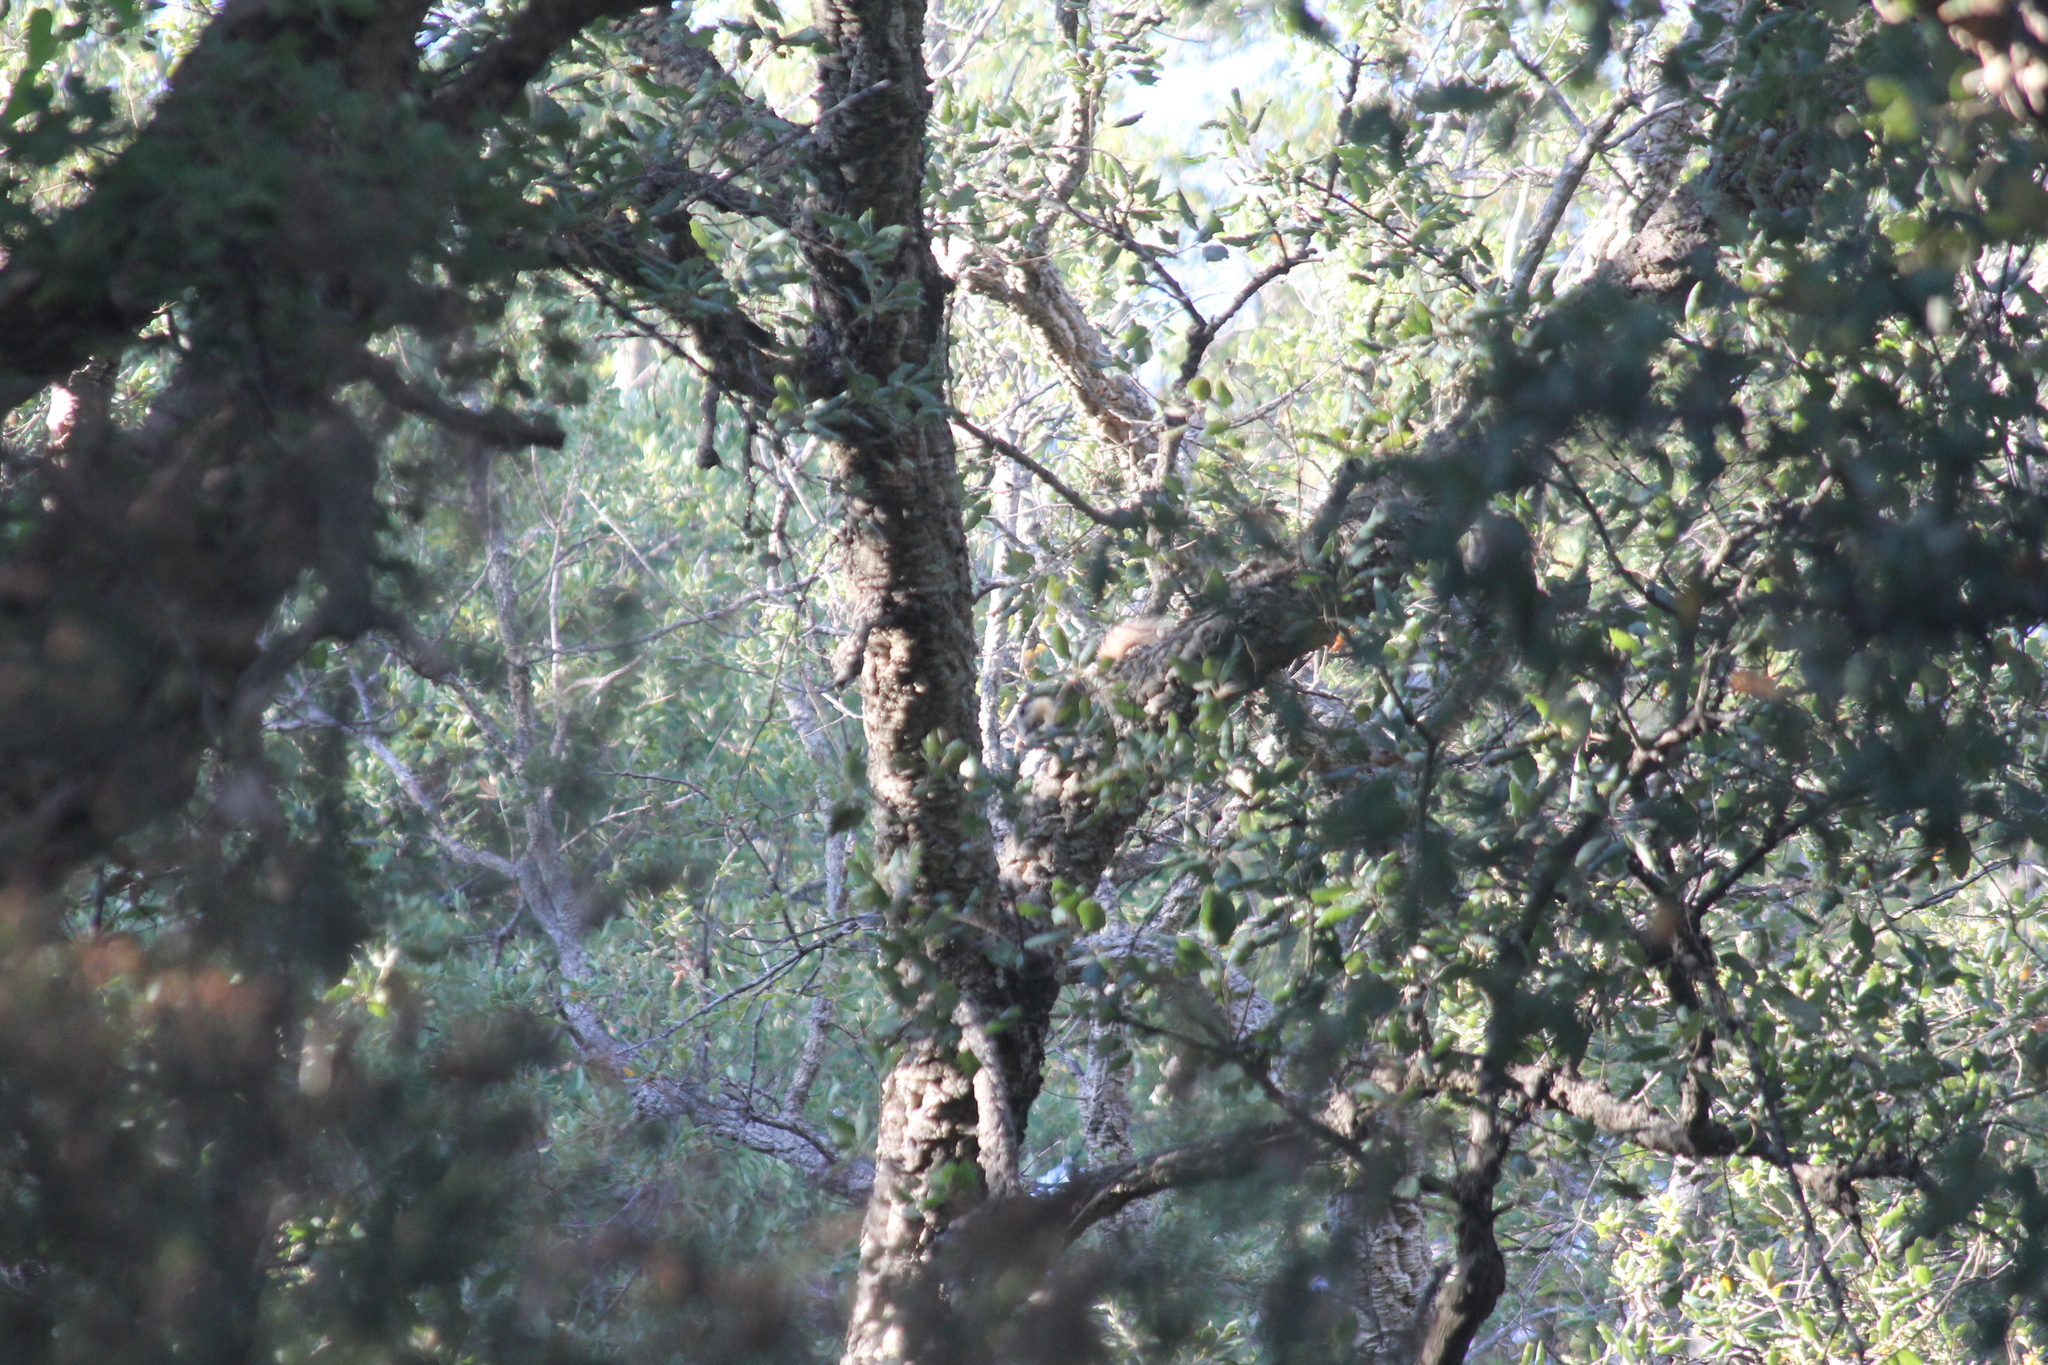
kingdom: Animalia
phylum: Chordata
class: Mammalia
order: Rodentia
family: Sciuridae
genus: Callosciurus
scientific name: Callosciurus finlaysonii
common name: Finlayson's squirrel
